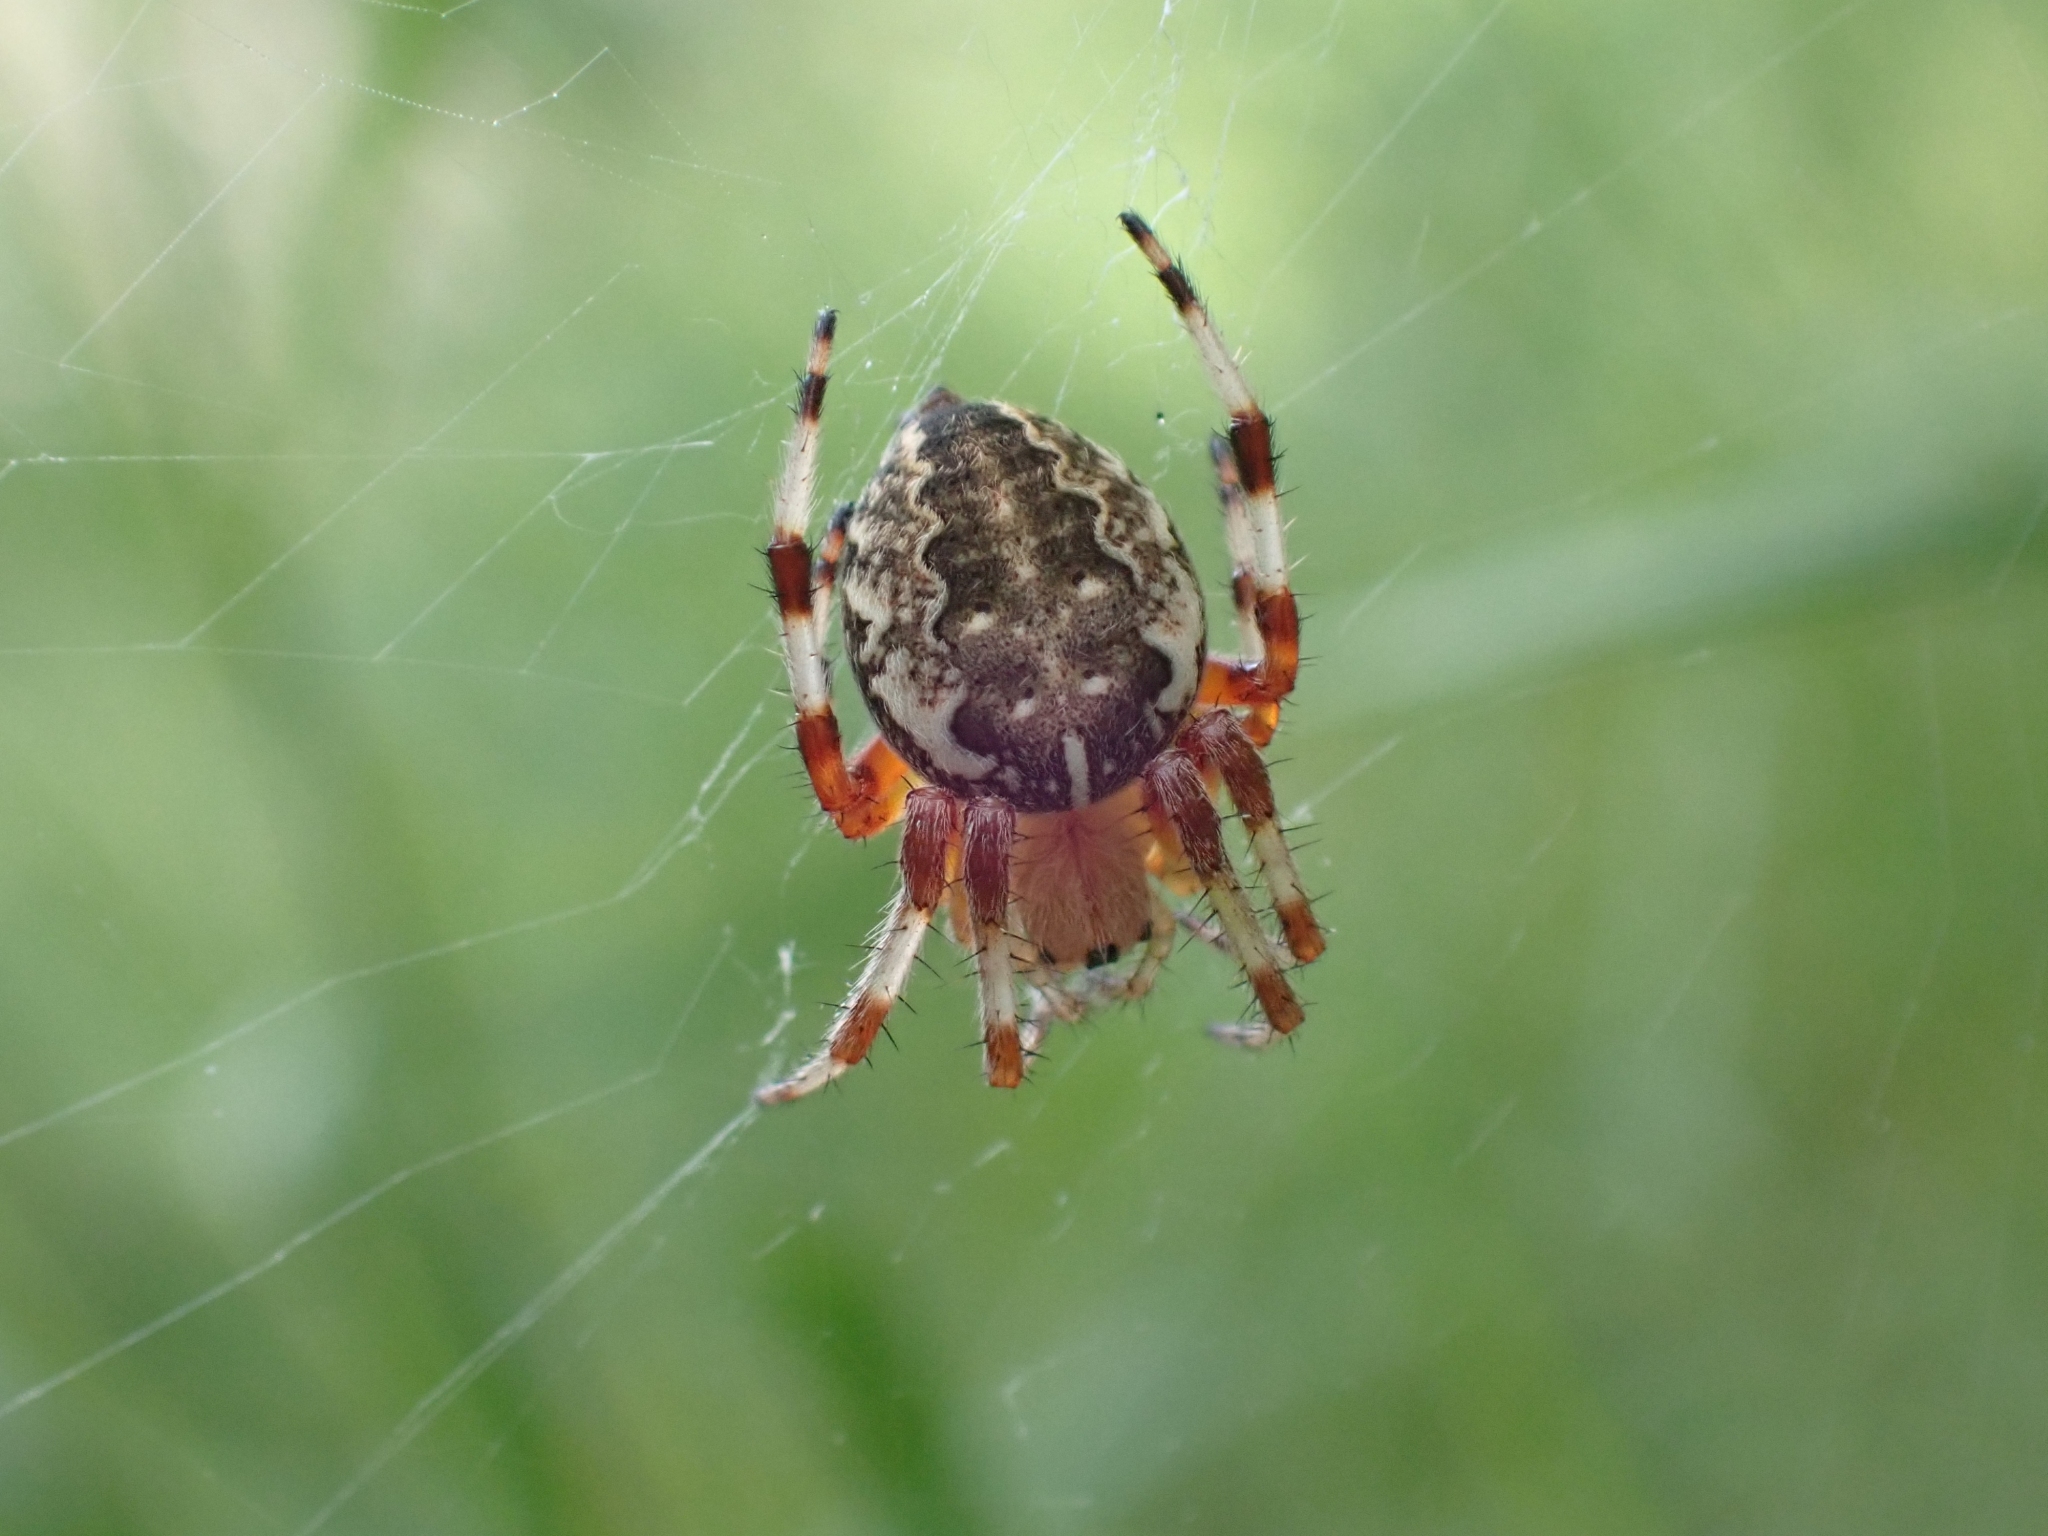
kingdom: Animalia
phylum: Arthropoda
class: Arachnida
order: Araneae
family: Araneidae
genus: Araneus
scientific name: Araneus marmoreus
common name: Marbled orbweaver
